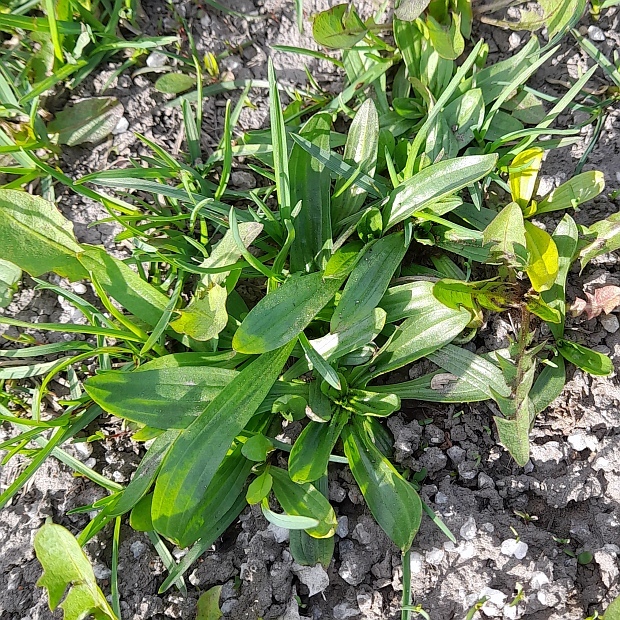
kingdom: Plantae
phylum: Tracheophyta
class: Magnoliopsida
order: Lamiales
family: Plantaginaceae
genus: Plantago
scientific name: Plantago lanceolata
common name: Ribwort plantain
